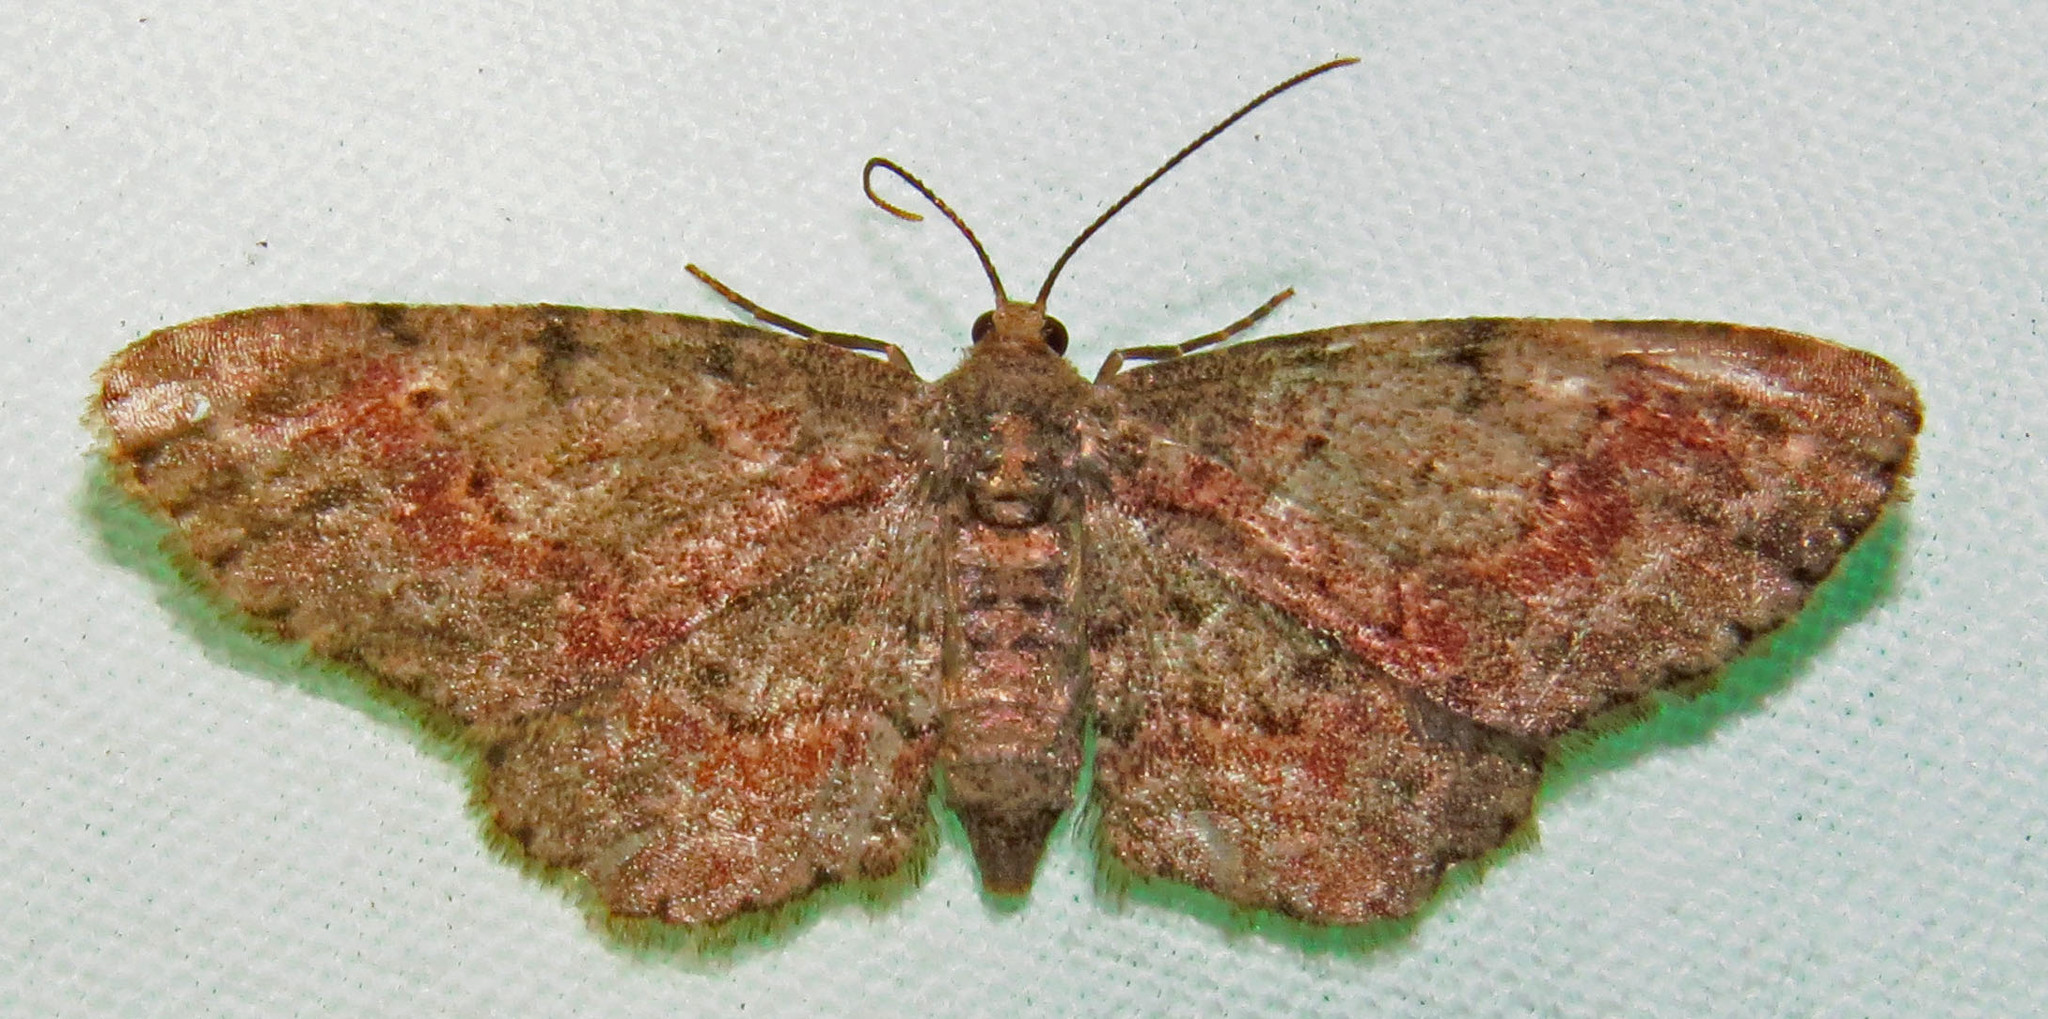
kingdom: Animalia
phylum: Arthropoda
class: Insecta
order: Lepidoptera
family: Geometridae
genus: Glenoides
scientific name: Glenoides texanaria
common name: Texas gray
